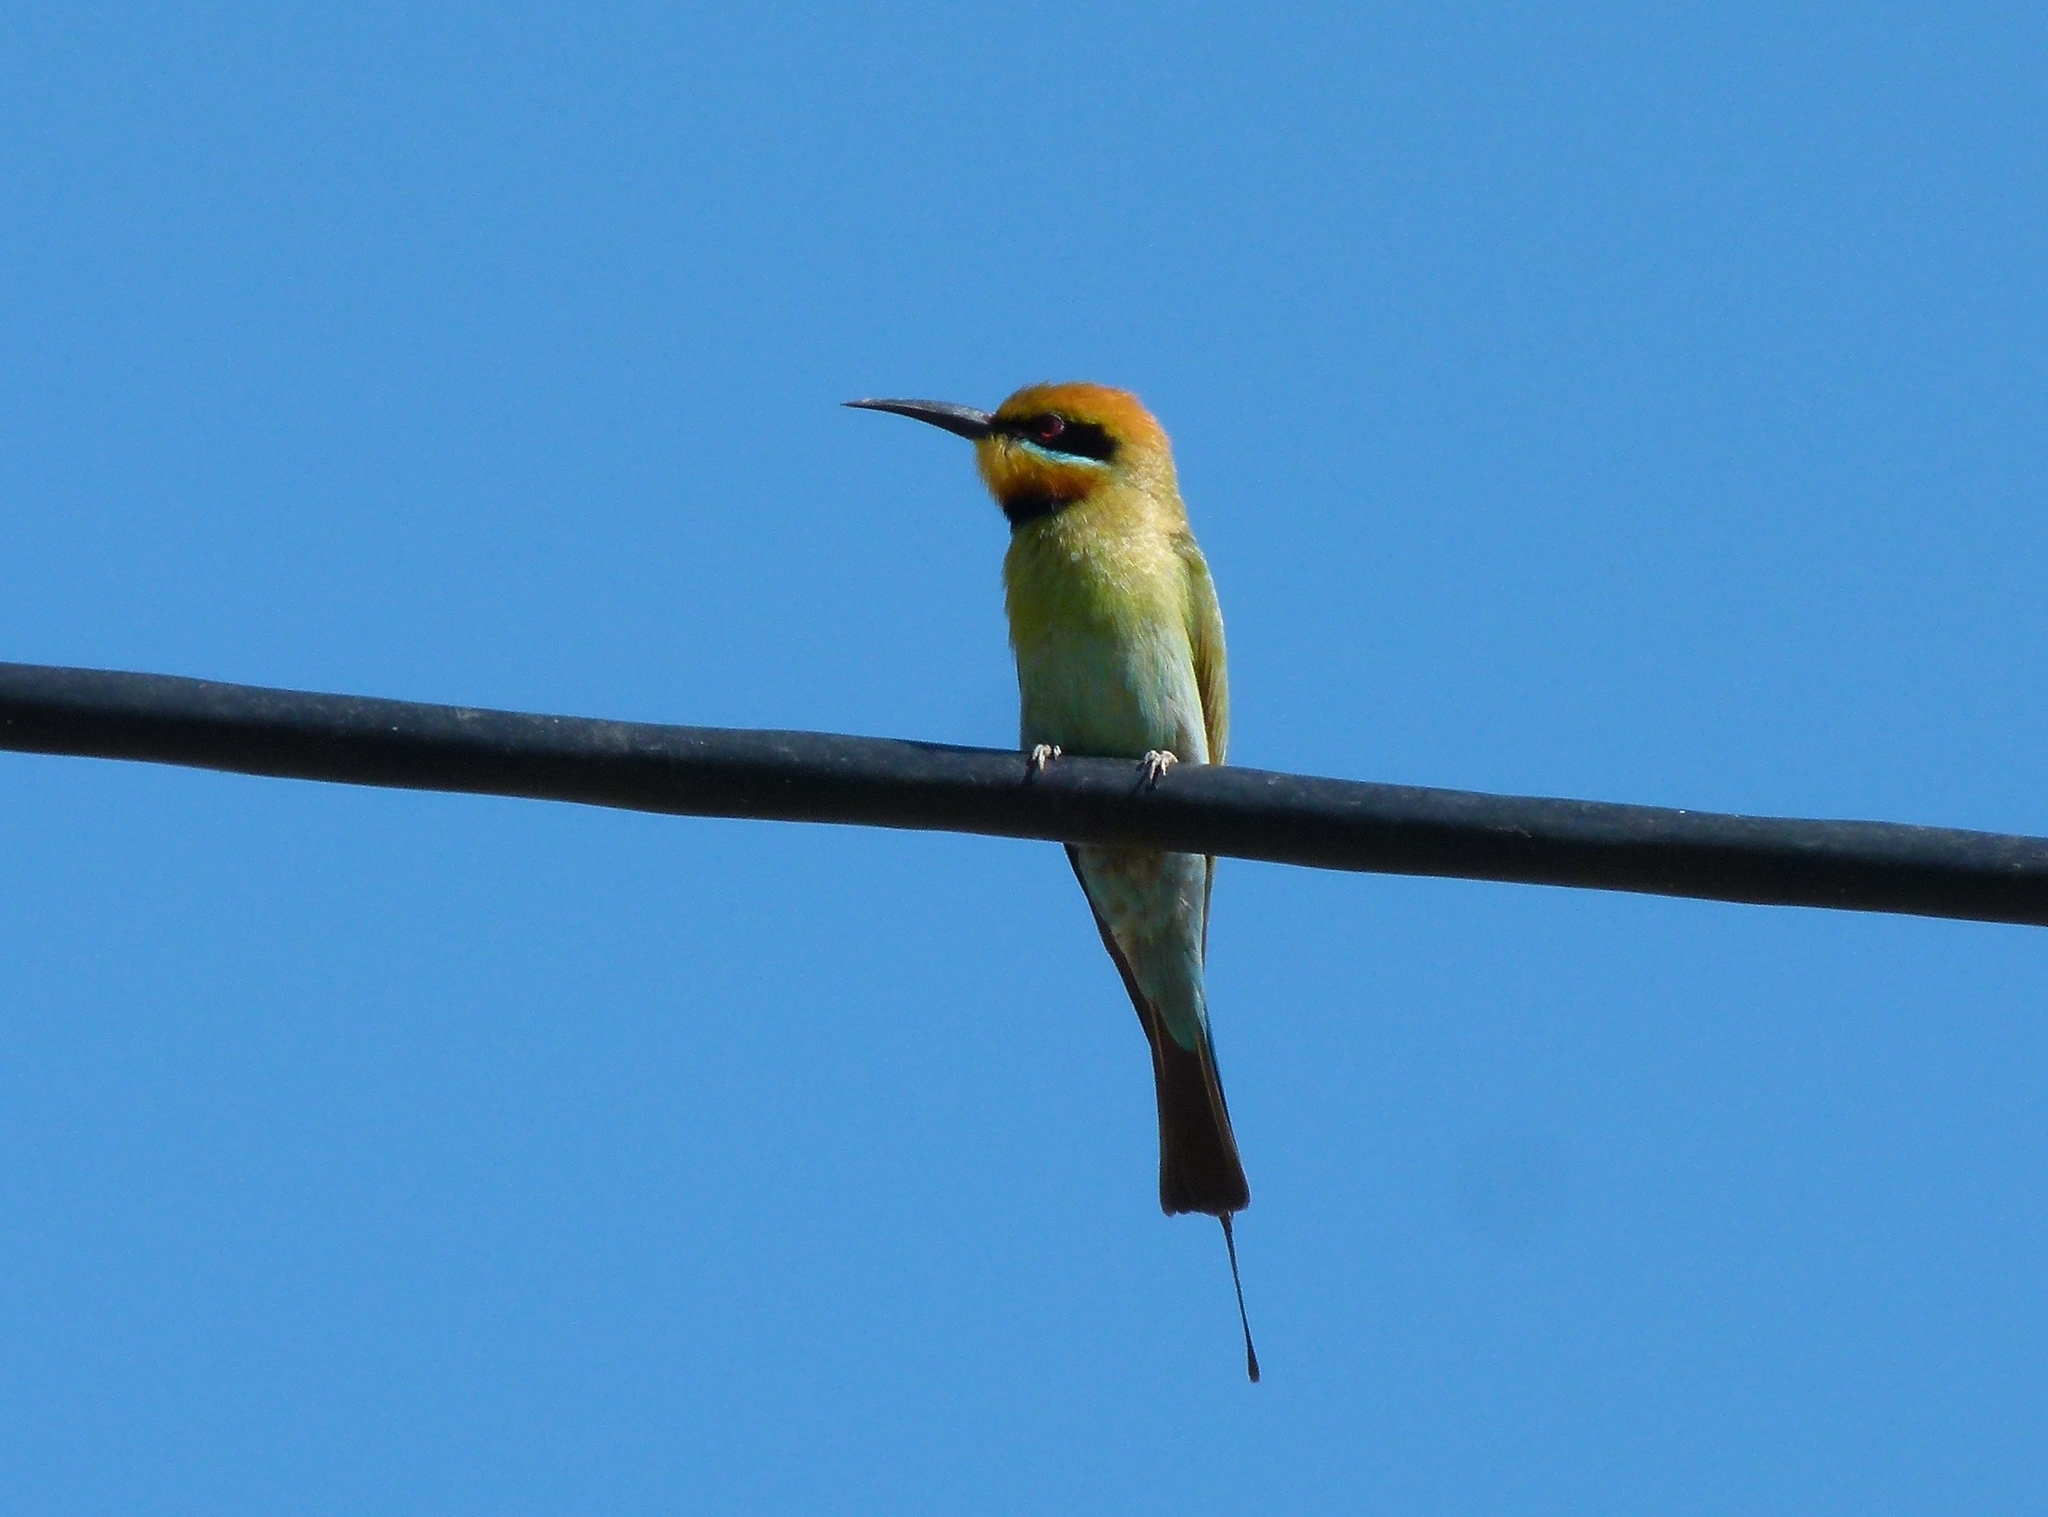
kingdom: Animalia
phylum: Chordata
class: Aves
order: Coraciiformes
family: Meropidae
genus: Merops
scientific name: Merops ornatus
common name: Rainbow bee-eater
